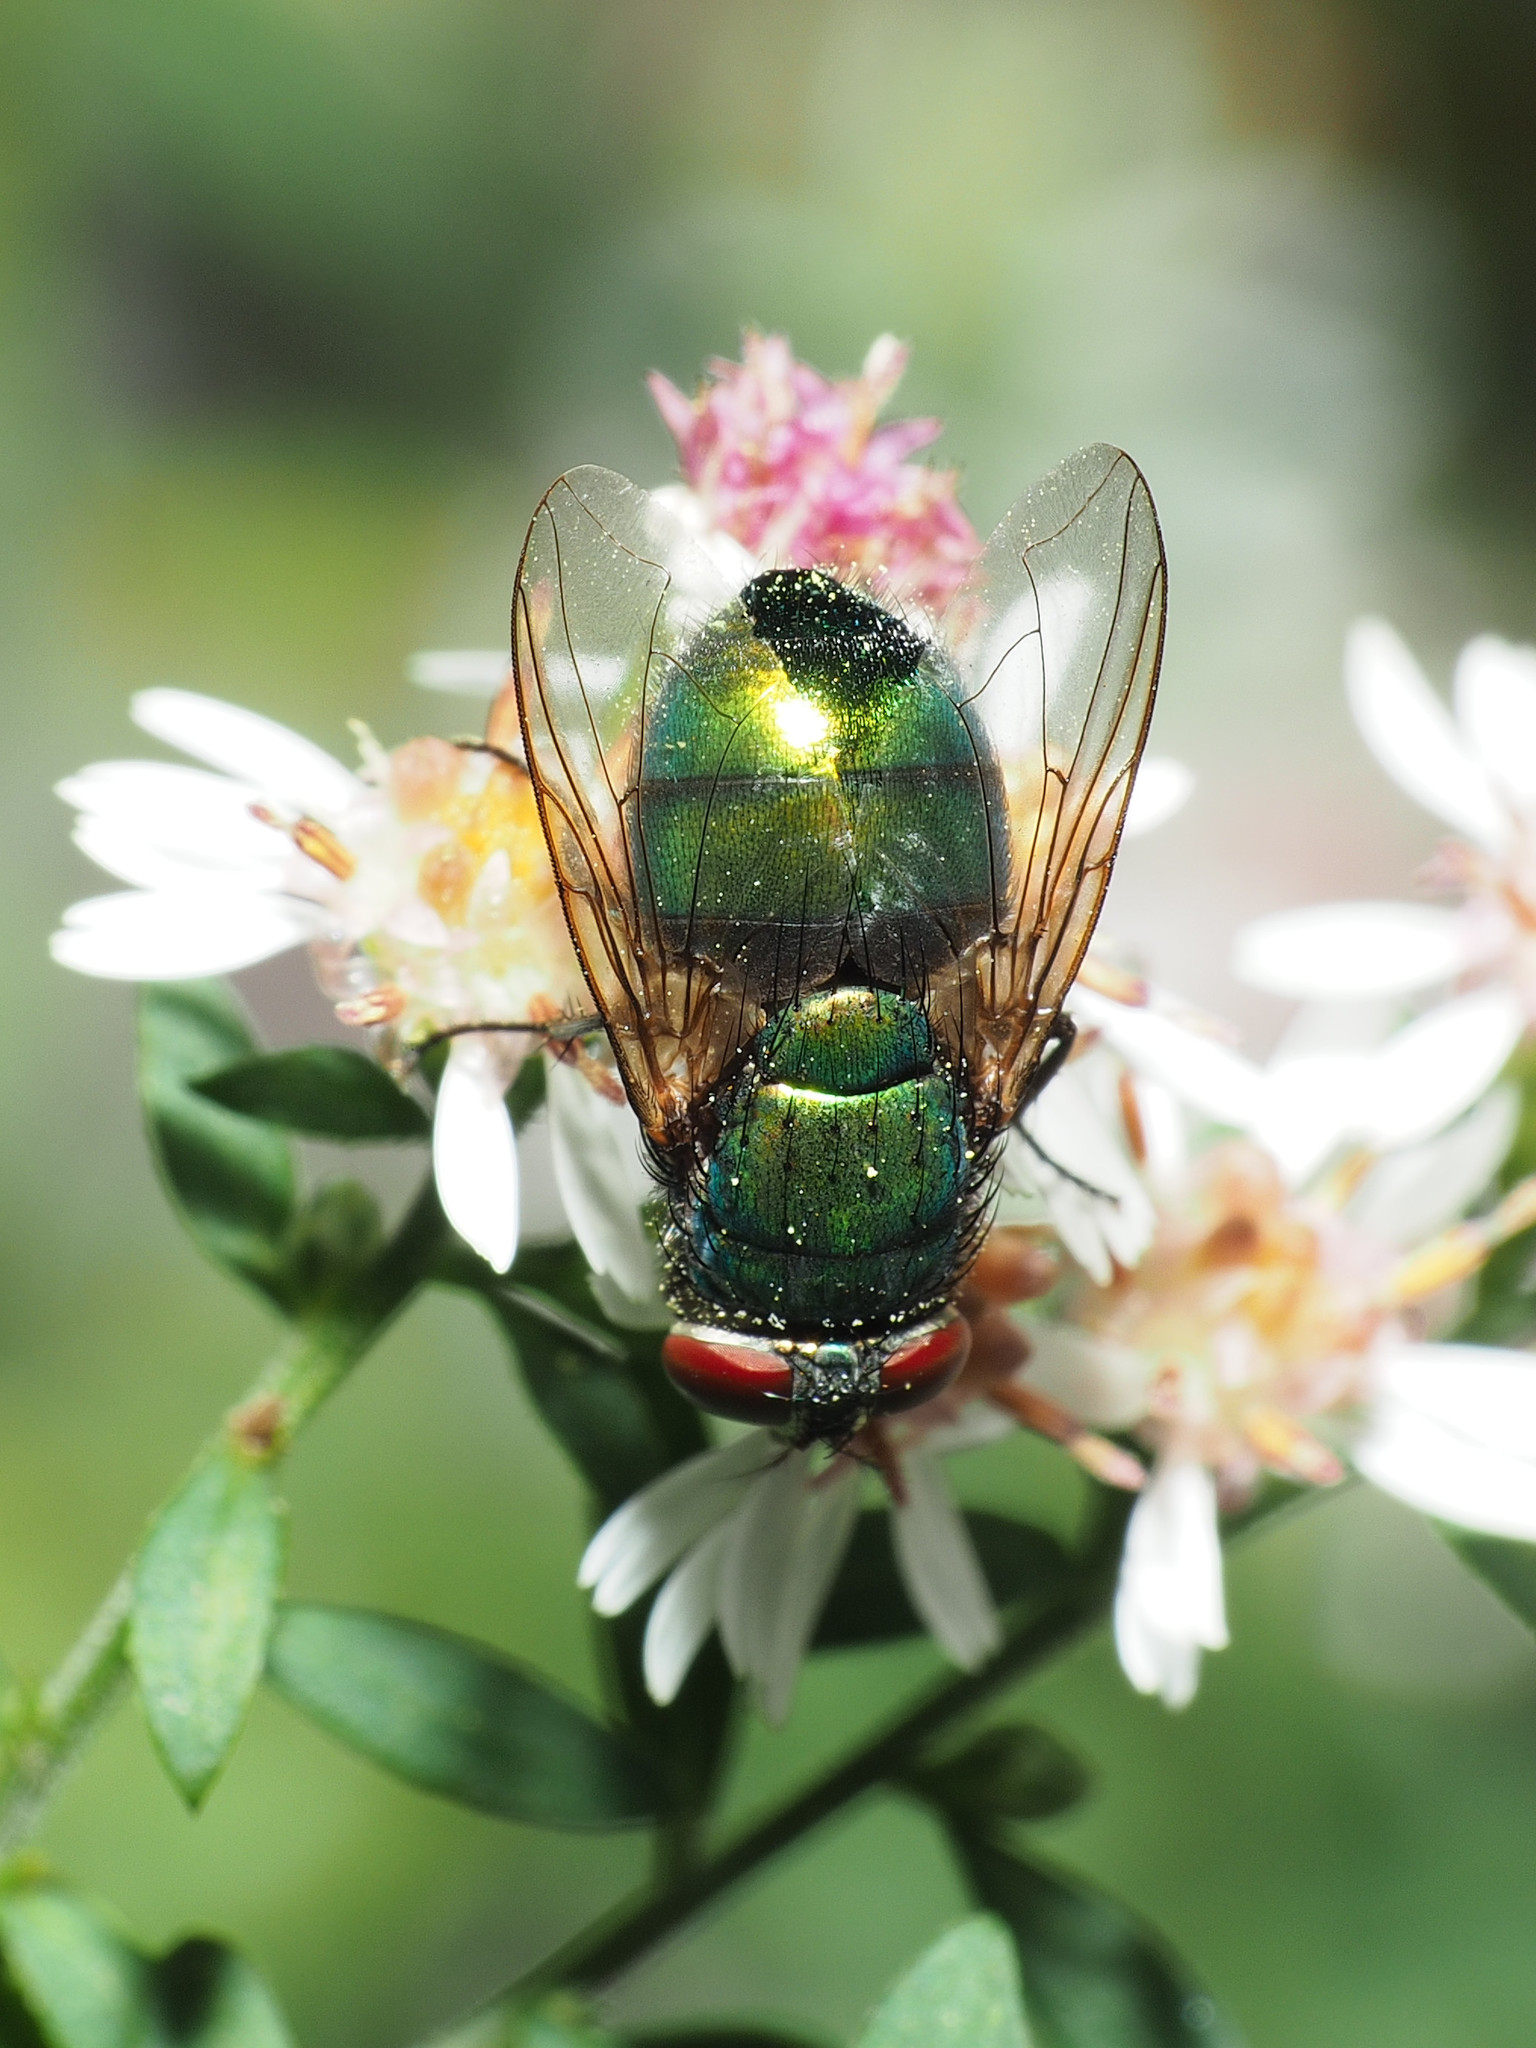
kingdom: Animalia
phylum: Arthropoda
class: Insecta
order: Diptera
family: Calliphoridae
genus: Lucilia
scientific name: Lucilia caeruleiviridis
